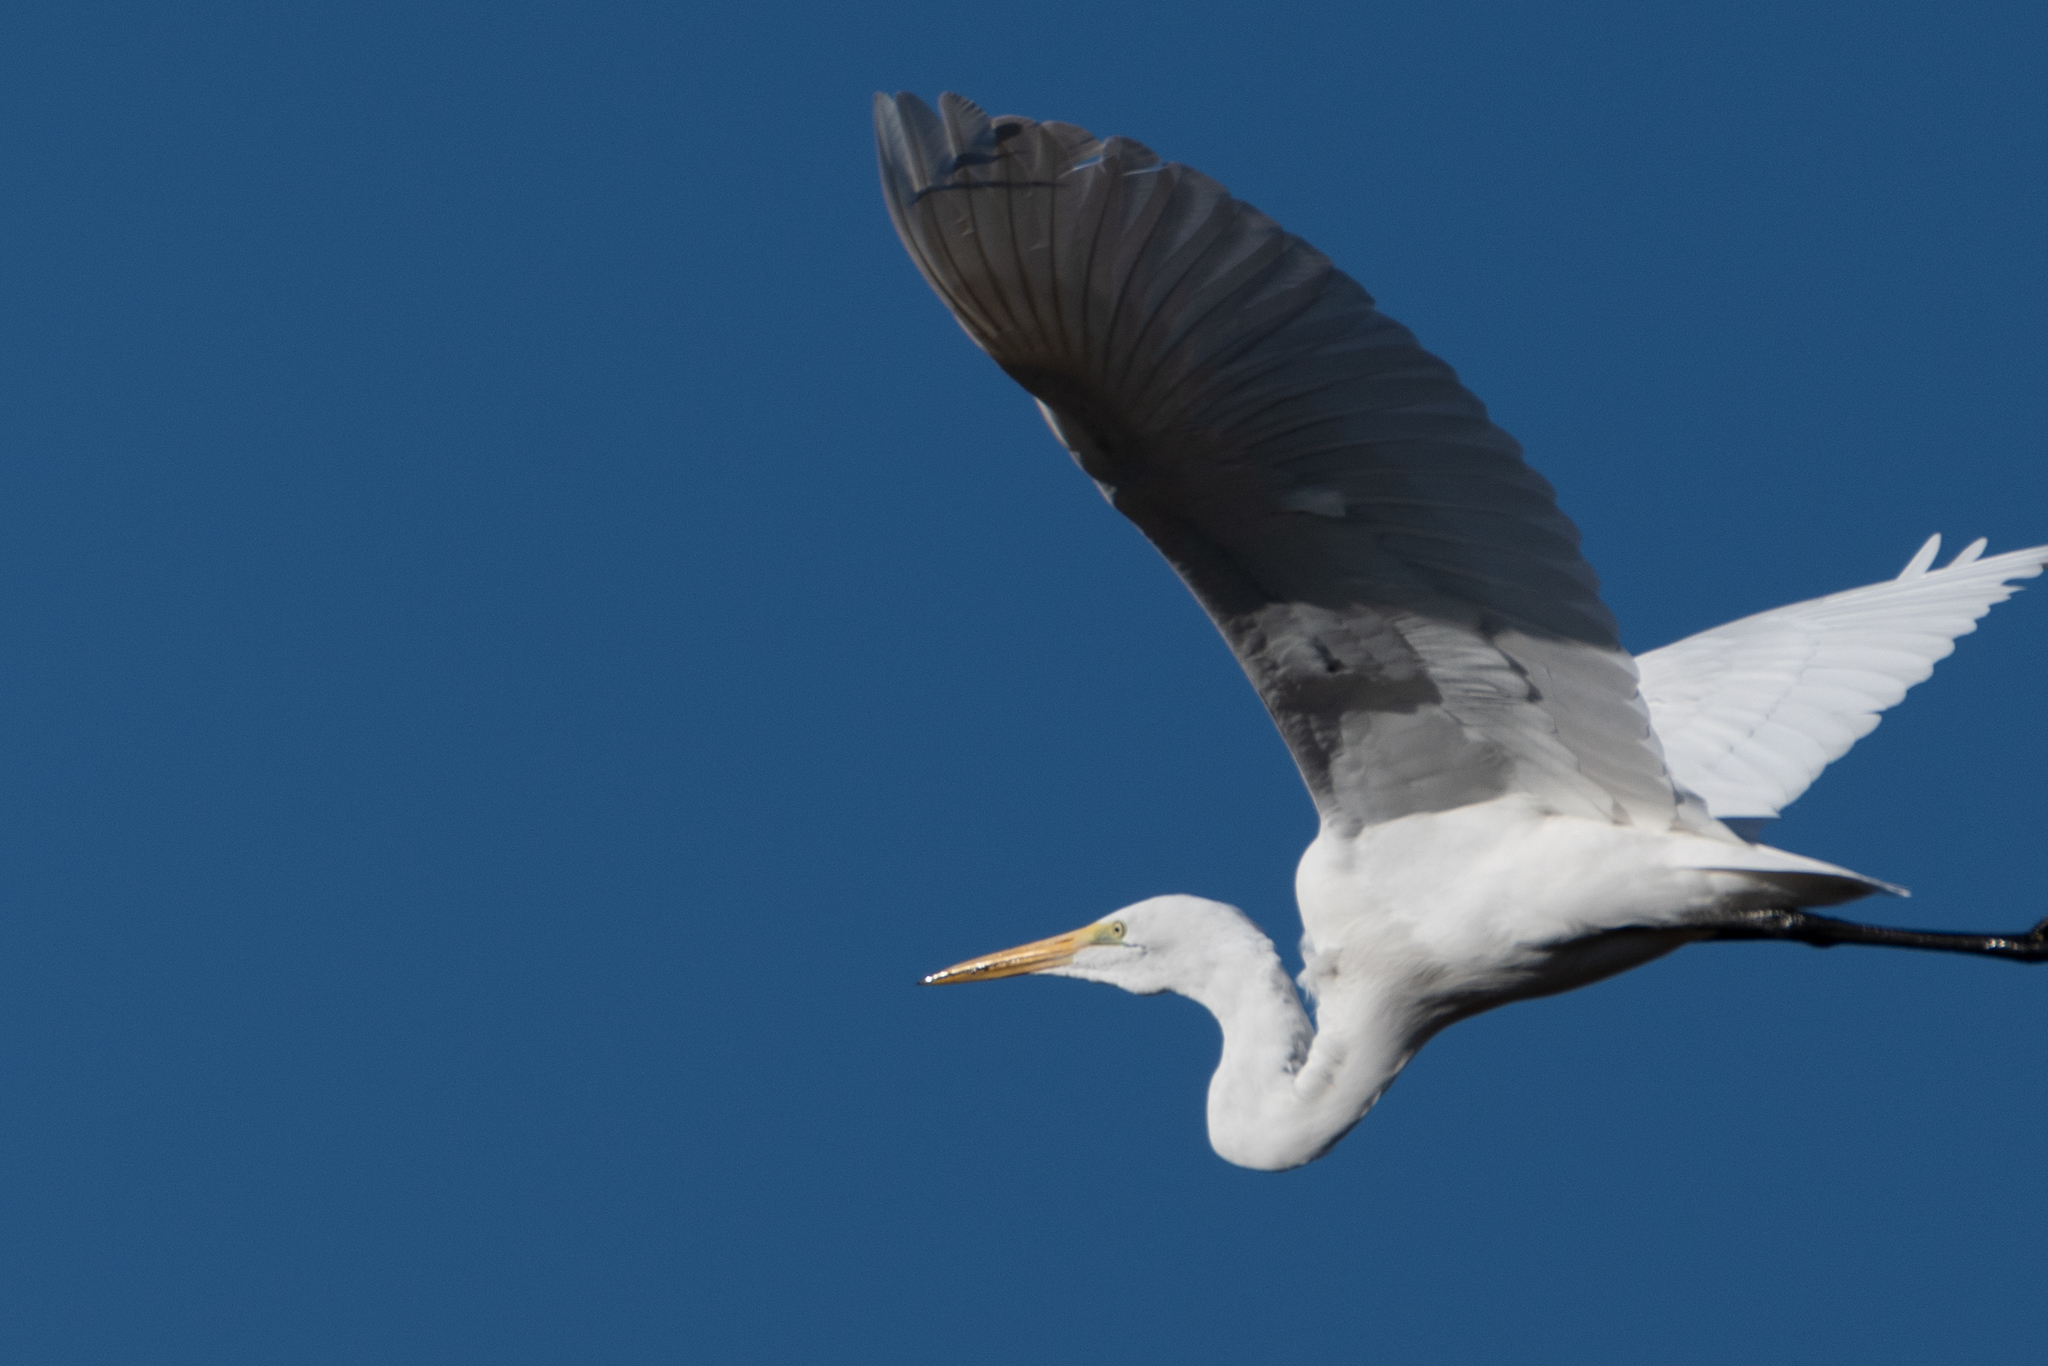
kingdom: Animalia
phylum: Chordata
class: Aves
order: Pelecaniformes
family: Ardeidae
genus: Ardea
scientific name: Ardea alba
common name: Great egret
